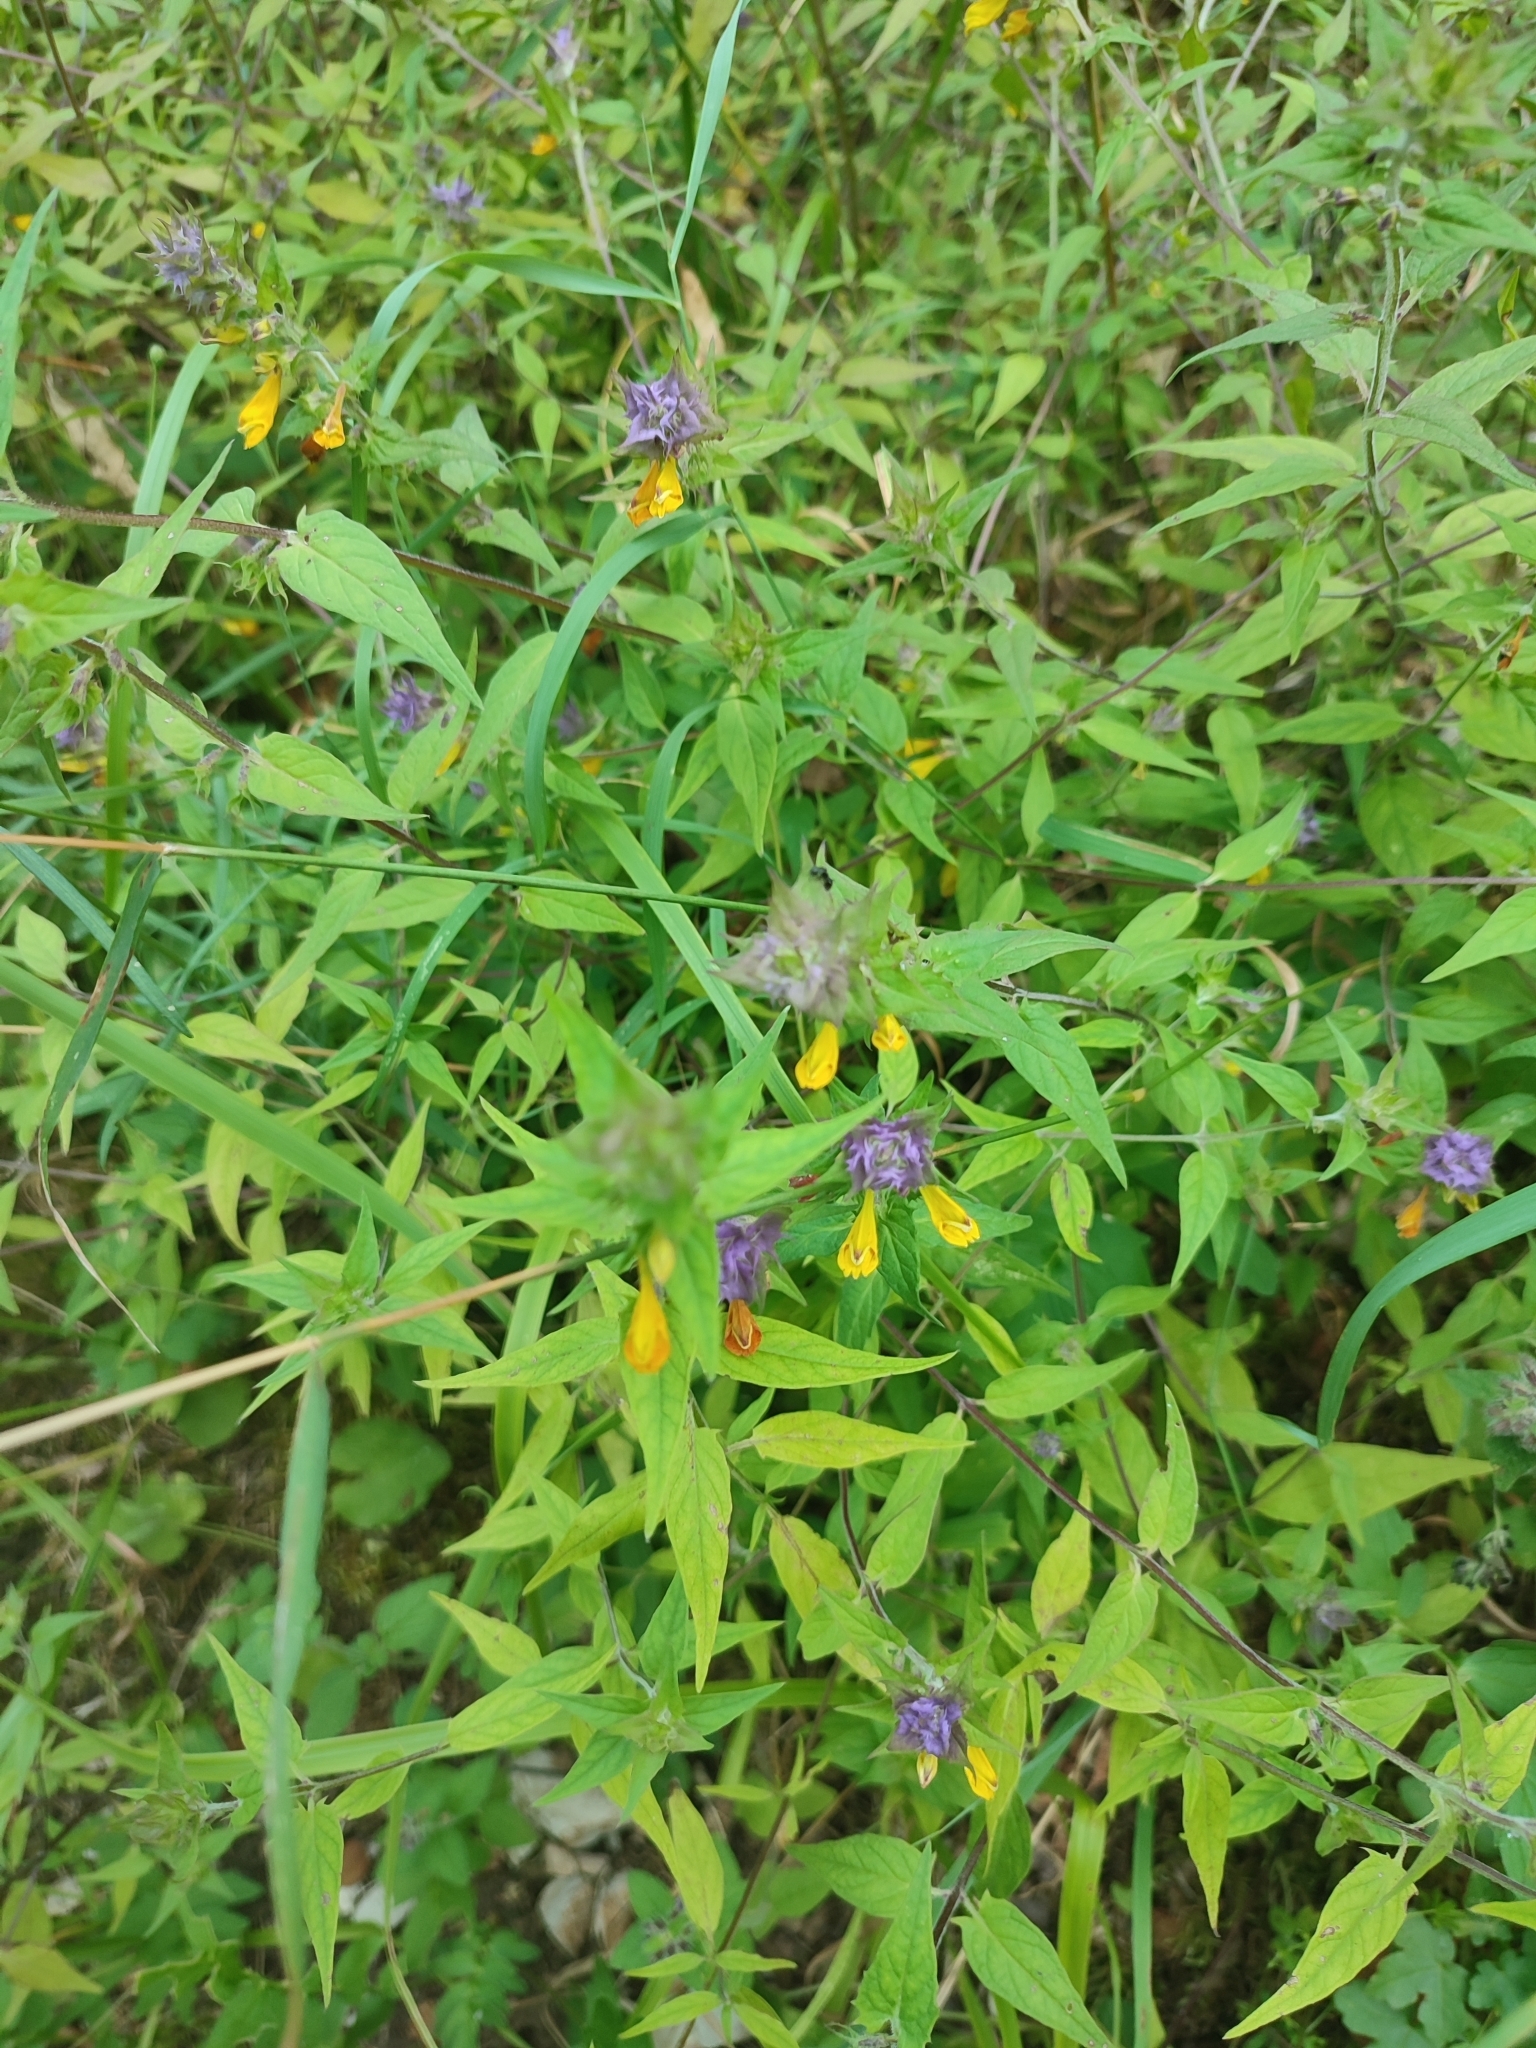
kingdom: Plantae
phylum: Tracheophyta
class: Magnoliopsida
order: Lamiales
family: Orobanchaceae
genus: Melampyrum
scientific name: Melampyrum catalaunicum
